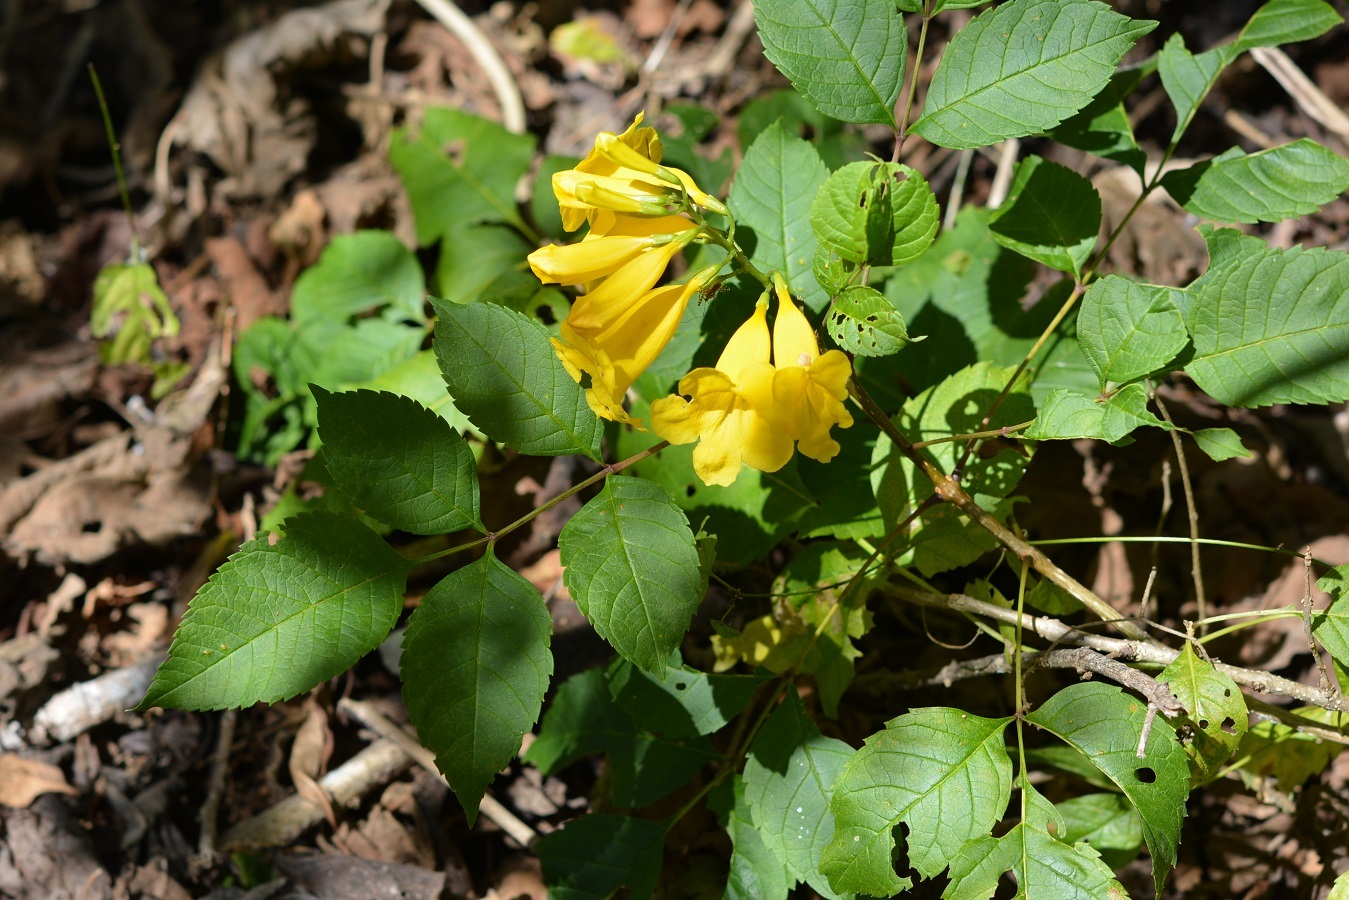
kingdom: Plantae
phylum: Tracheophyta
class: Magnoliopsida
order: Lamiales
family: Bignoniaceae
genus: Tecoma
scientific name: Tecoma stans
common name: Yellow trumpetbush
